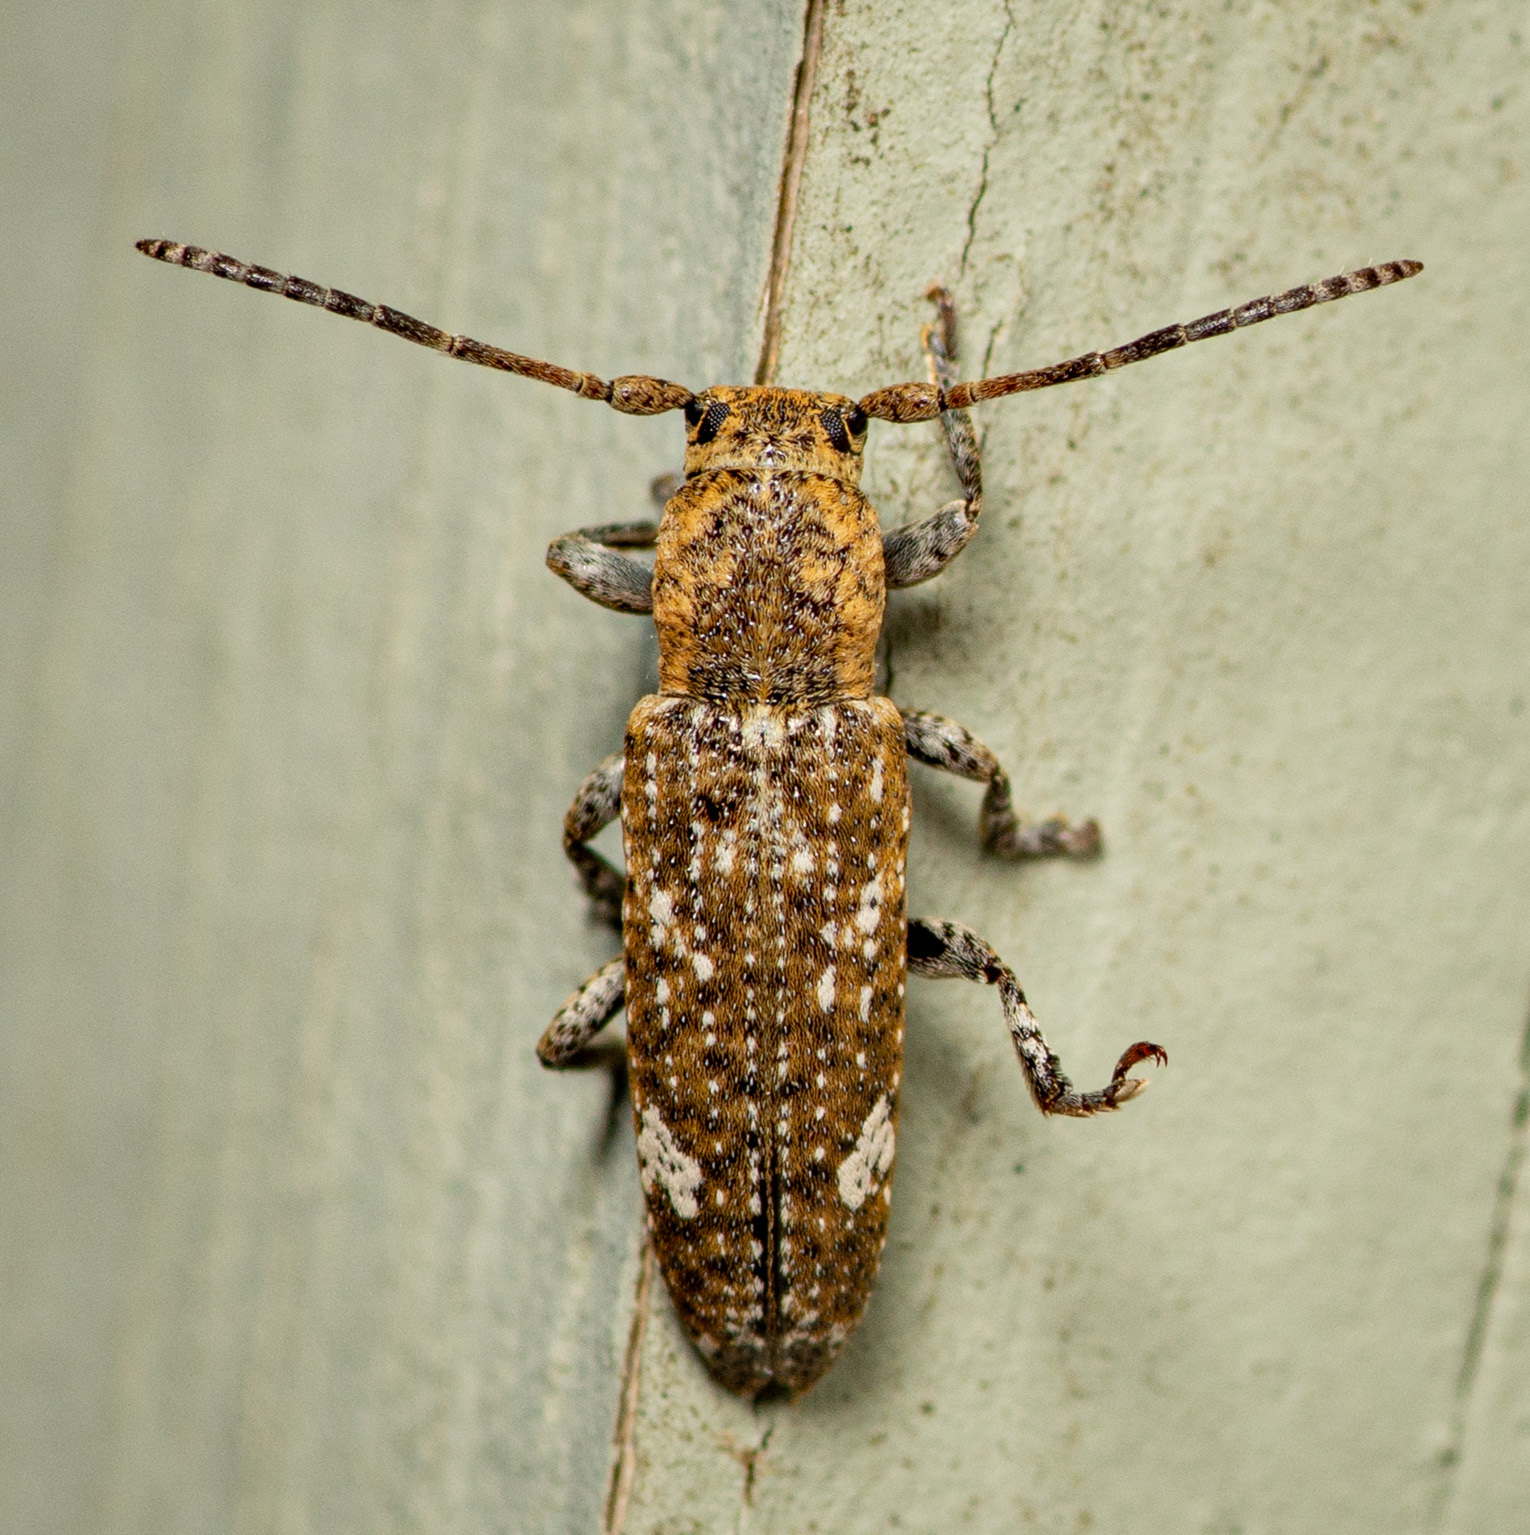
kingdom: Animalia
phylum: Arthropoda
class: Insecta
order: Coleoptera
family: Cerambycidae
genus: Adetus
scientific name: Adetus brousii
